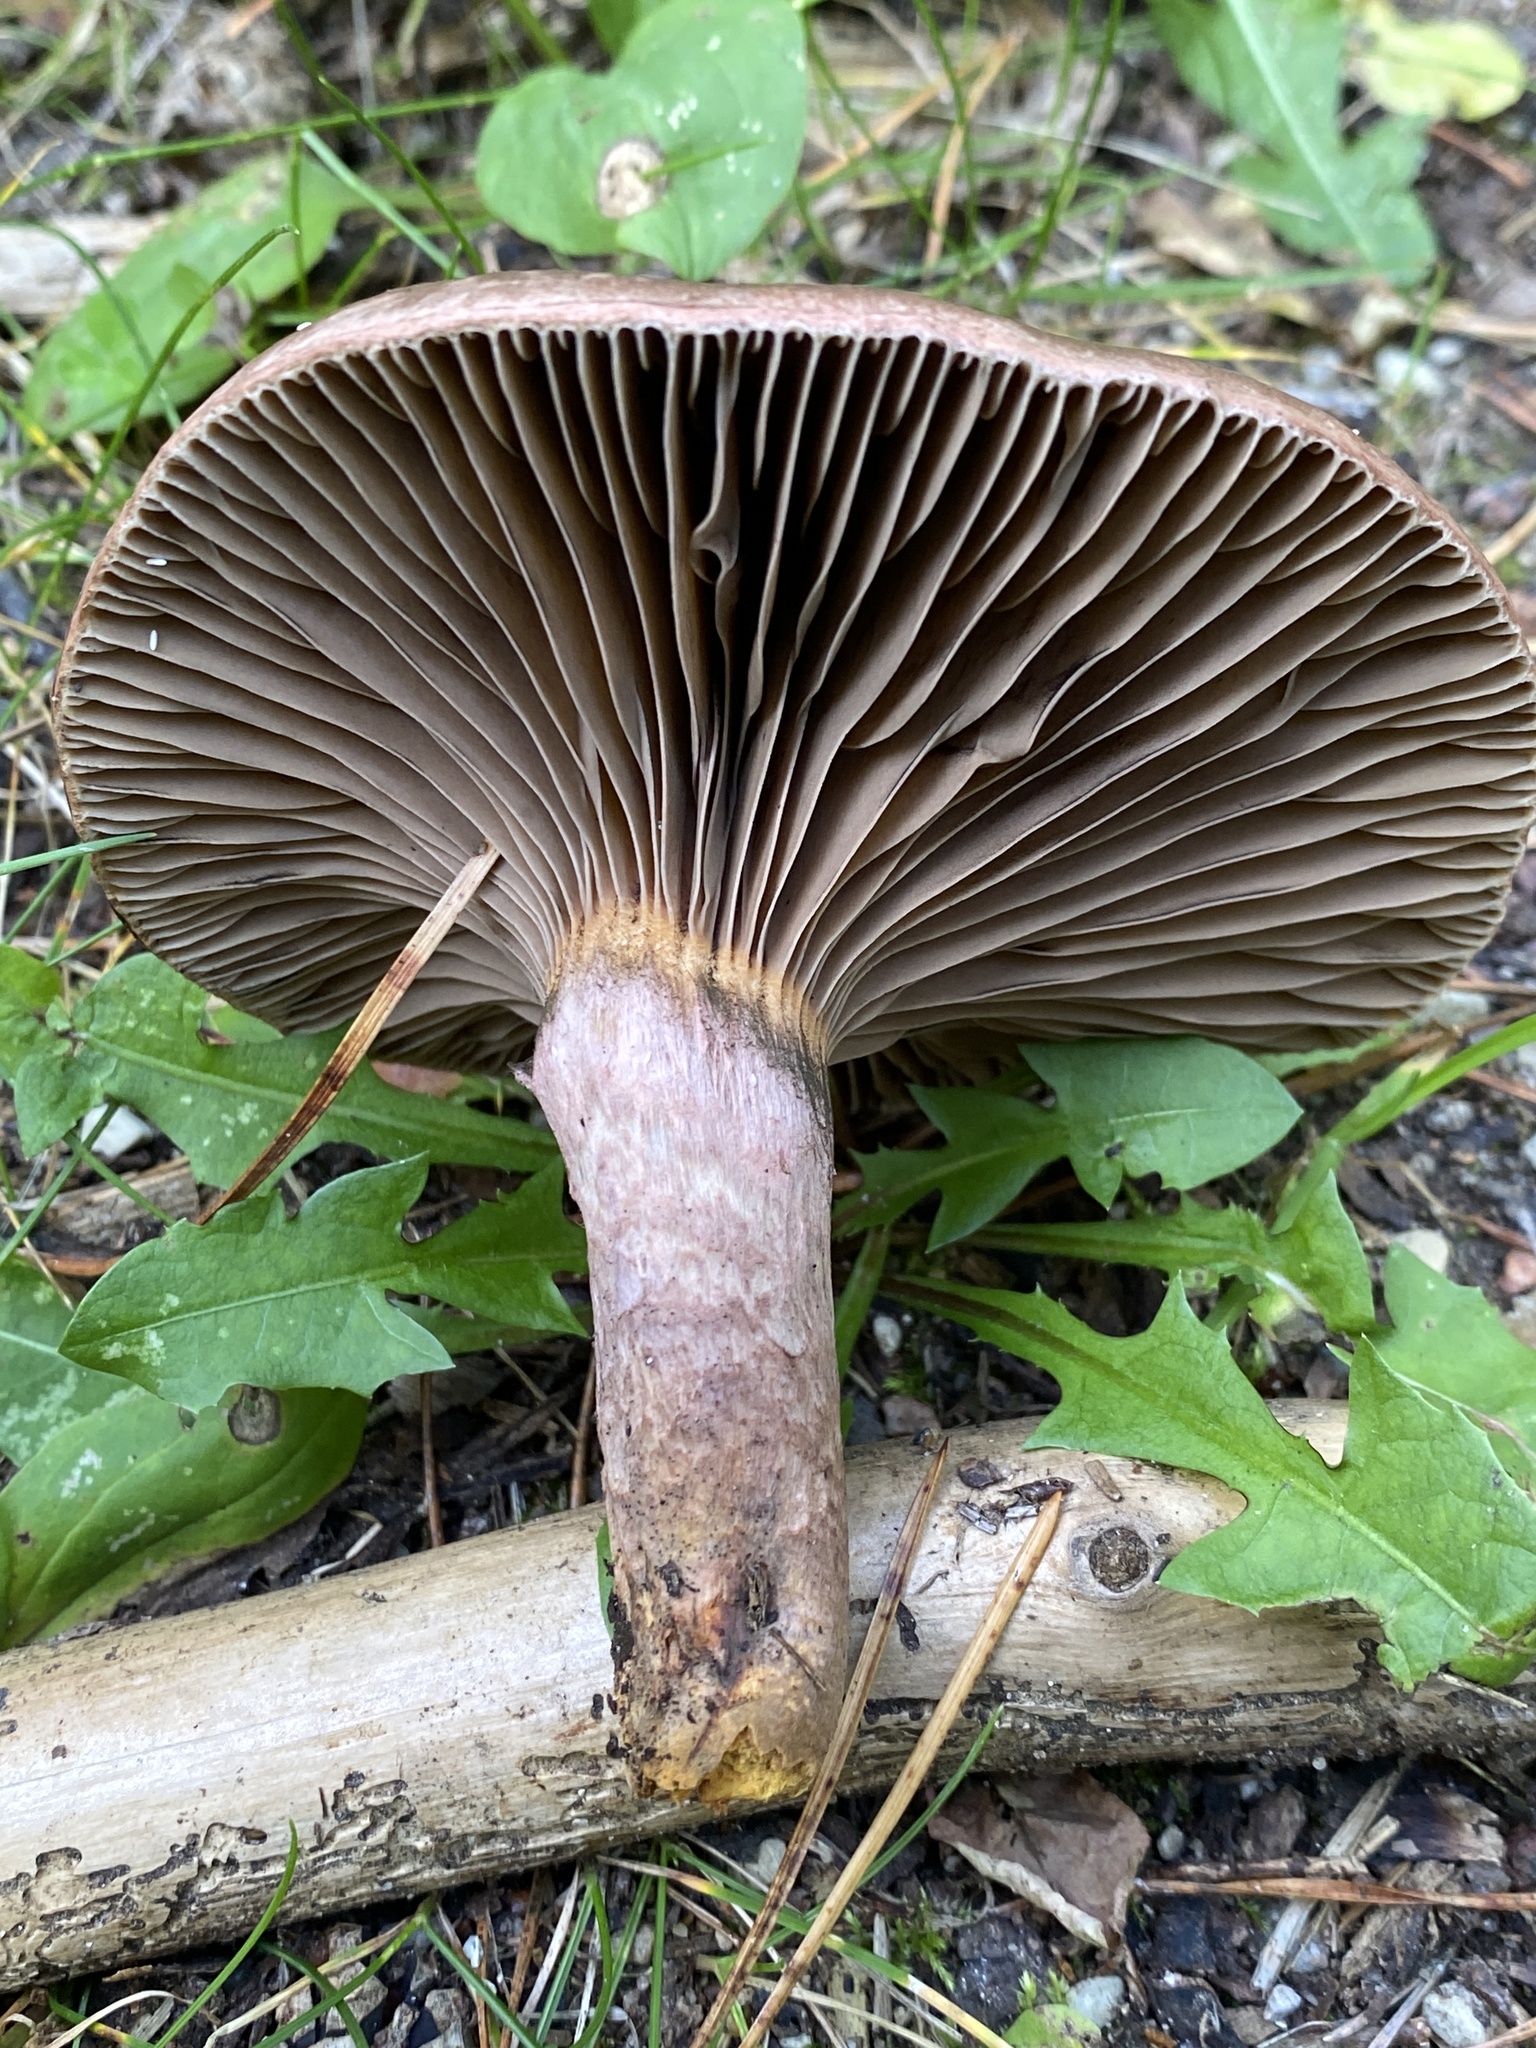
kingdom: Fungi
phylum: Basidiomycota
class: Agaricomycetes
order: Boletales
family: Gomphidiaceae
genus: Chroogomphus
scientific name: Chroogomphus rutilus
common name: Copper spike
